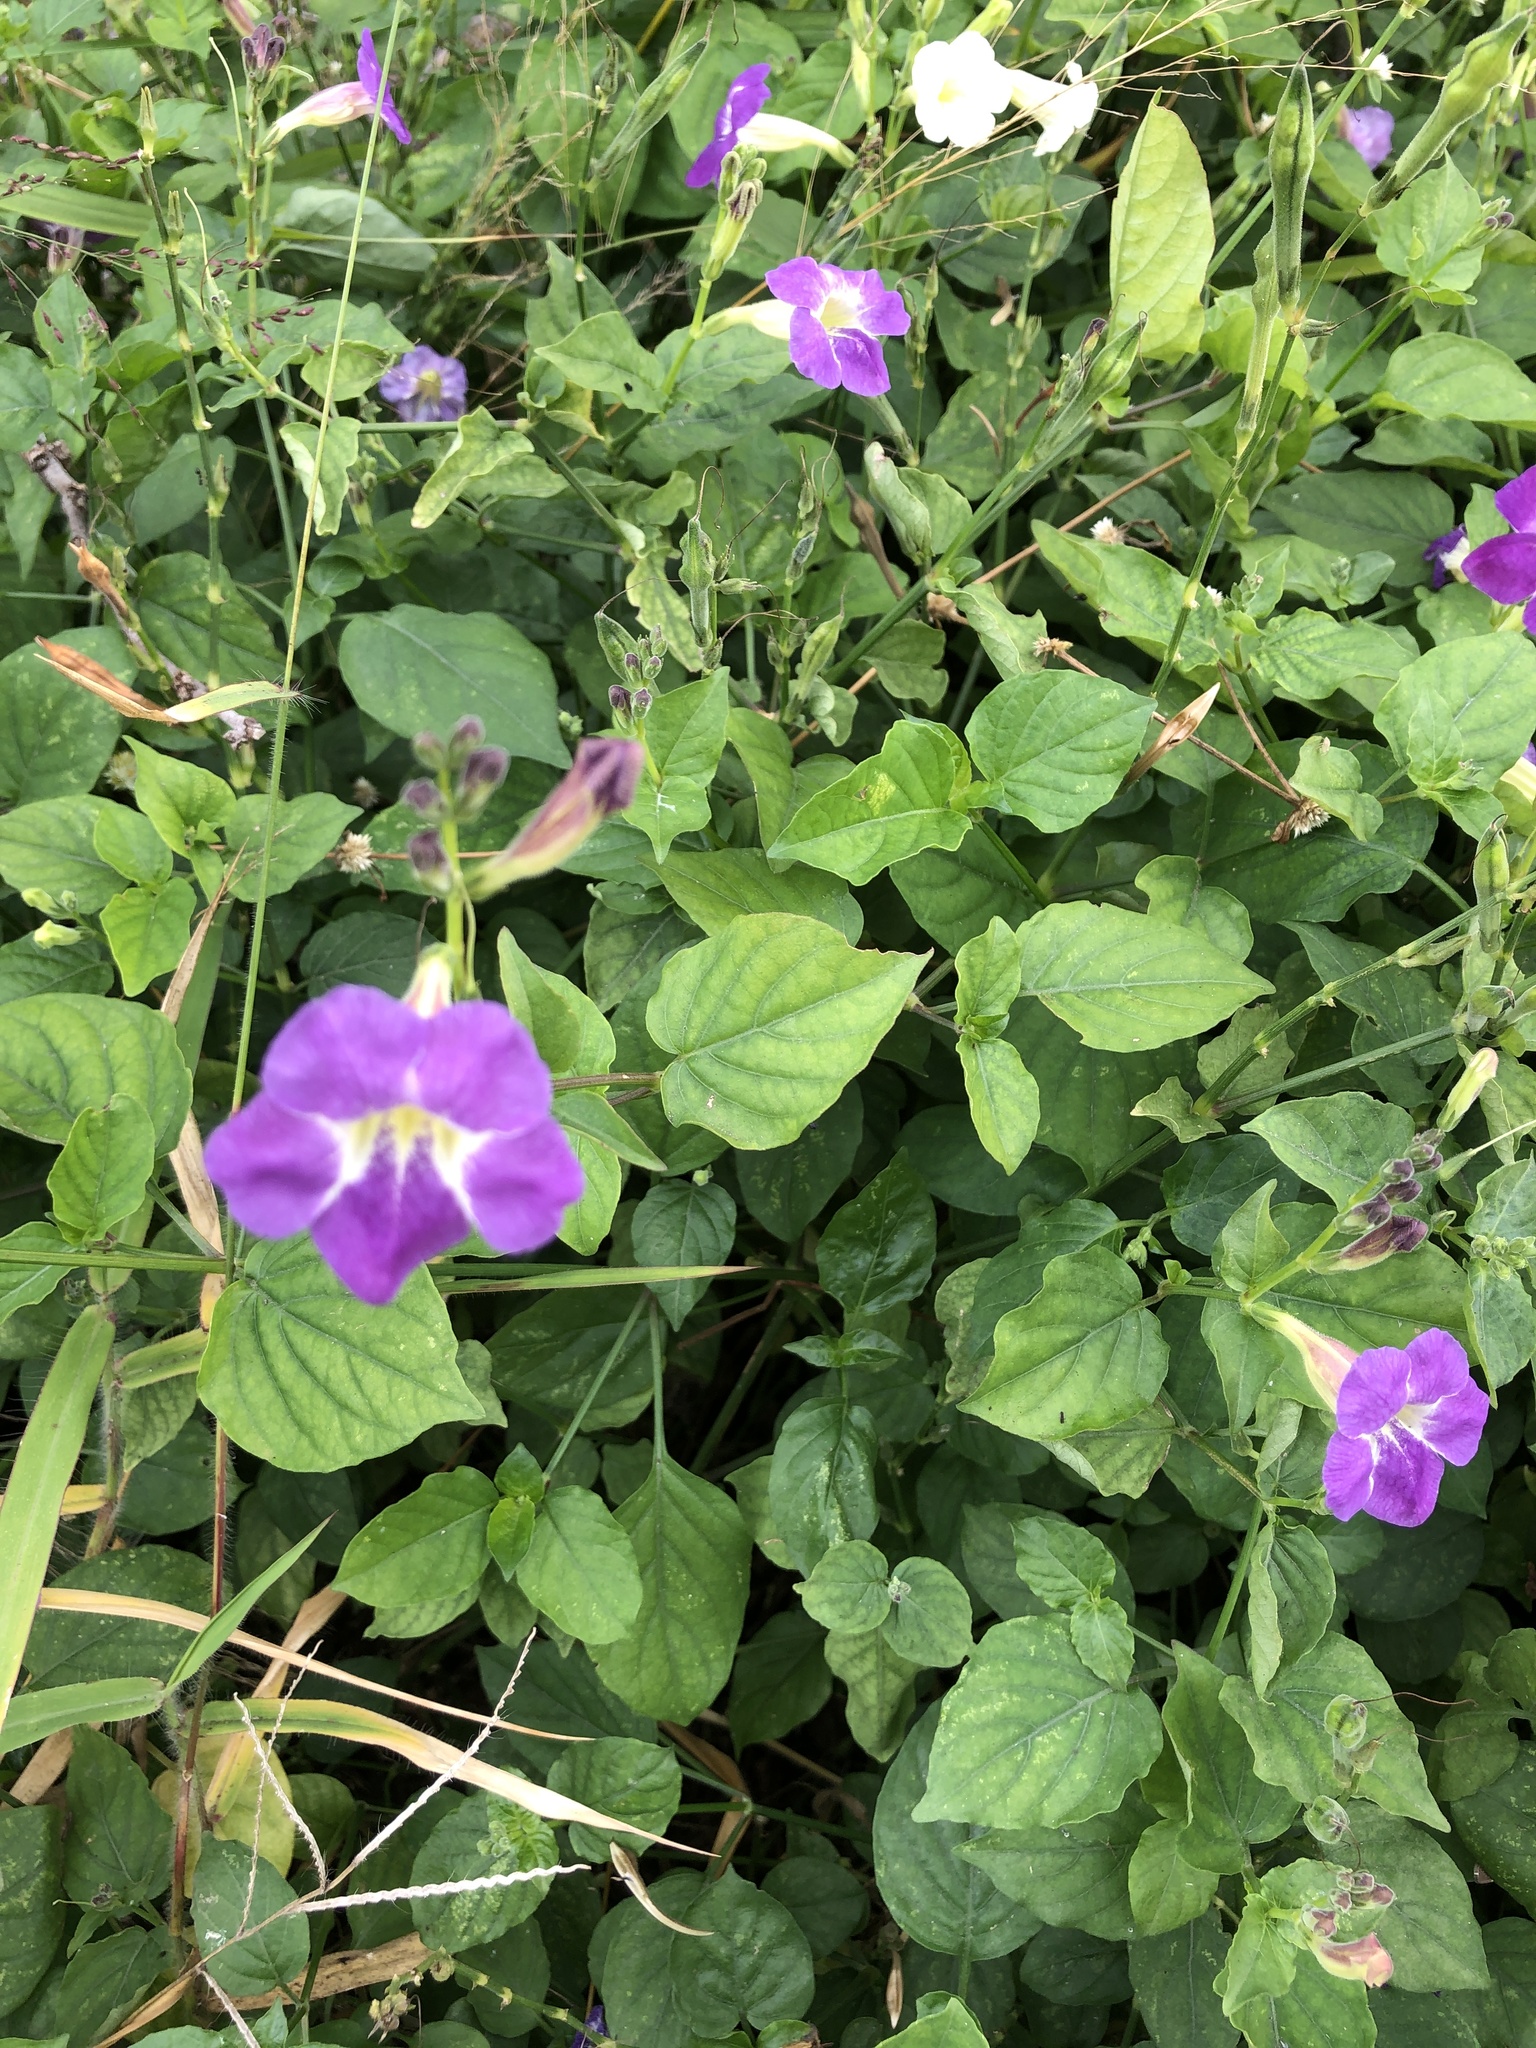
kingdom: Plantae
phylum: Tracheophyta
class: Magnoliopsida
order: Lamiales
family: Acanthaceae
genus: Asystasia
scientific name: Asystasia gangetica
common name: Chinese violet
